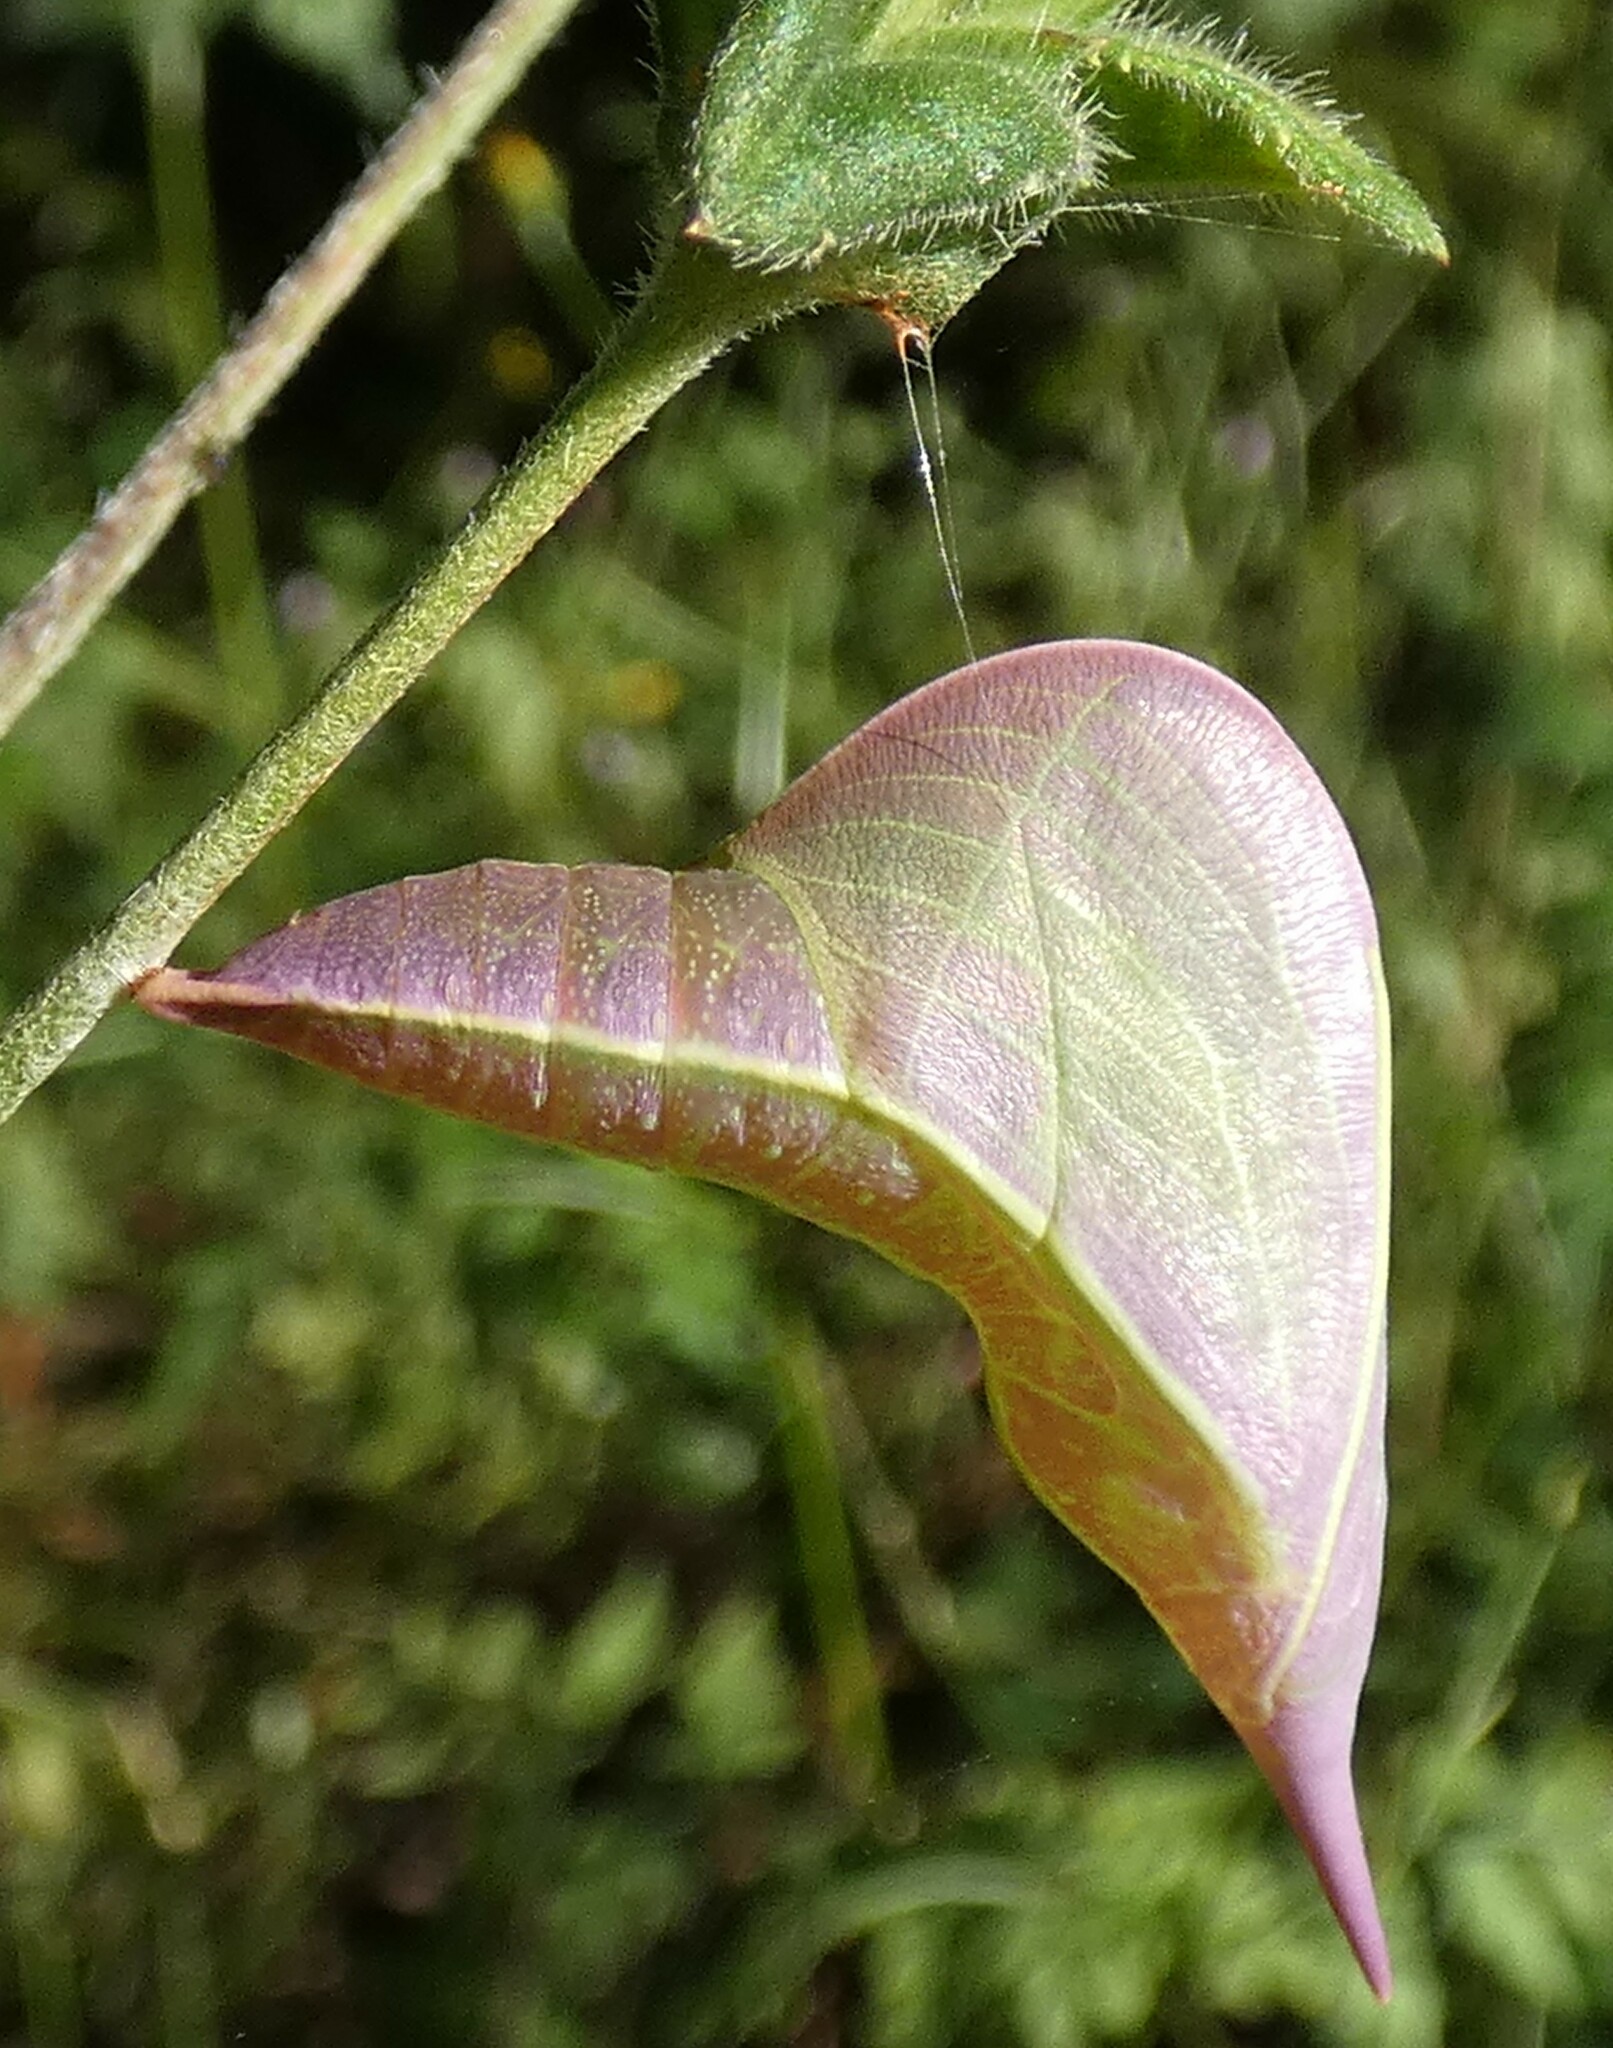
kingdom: Animalia
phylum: Arthropoda
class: Insecta
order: Lepidoptera
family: Pieridae
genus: Phoebis
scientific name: Phoebis sennae
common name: Cloudless sulphur
